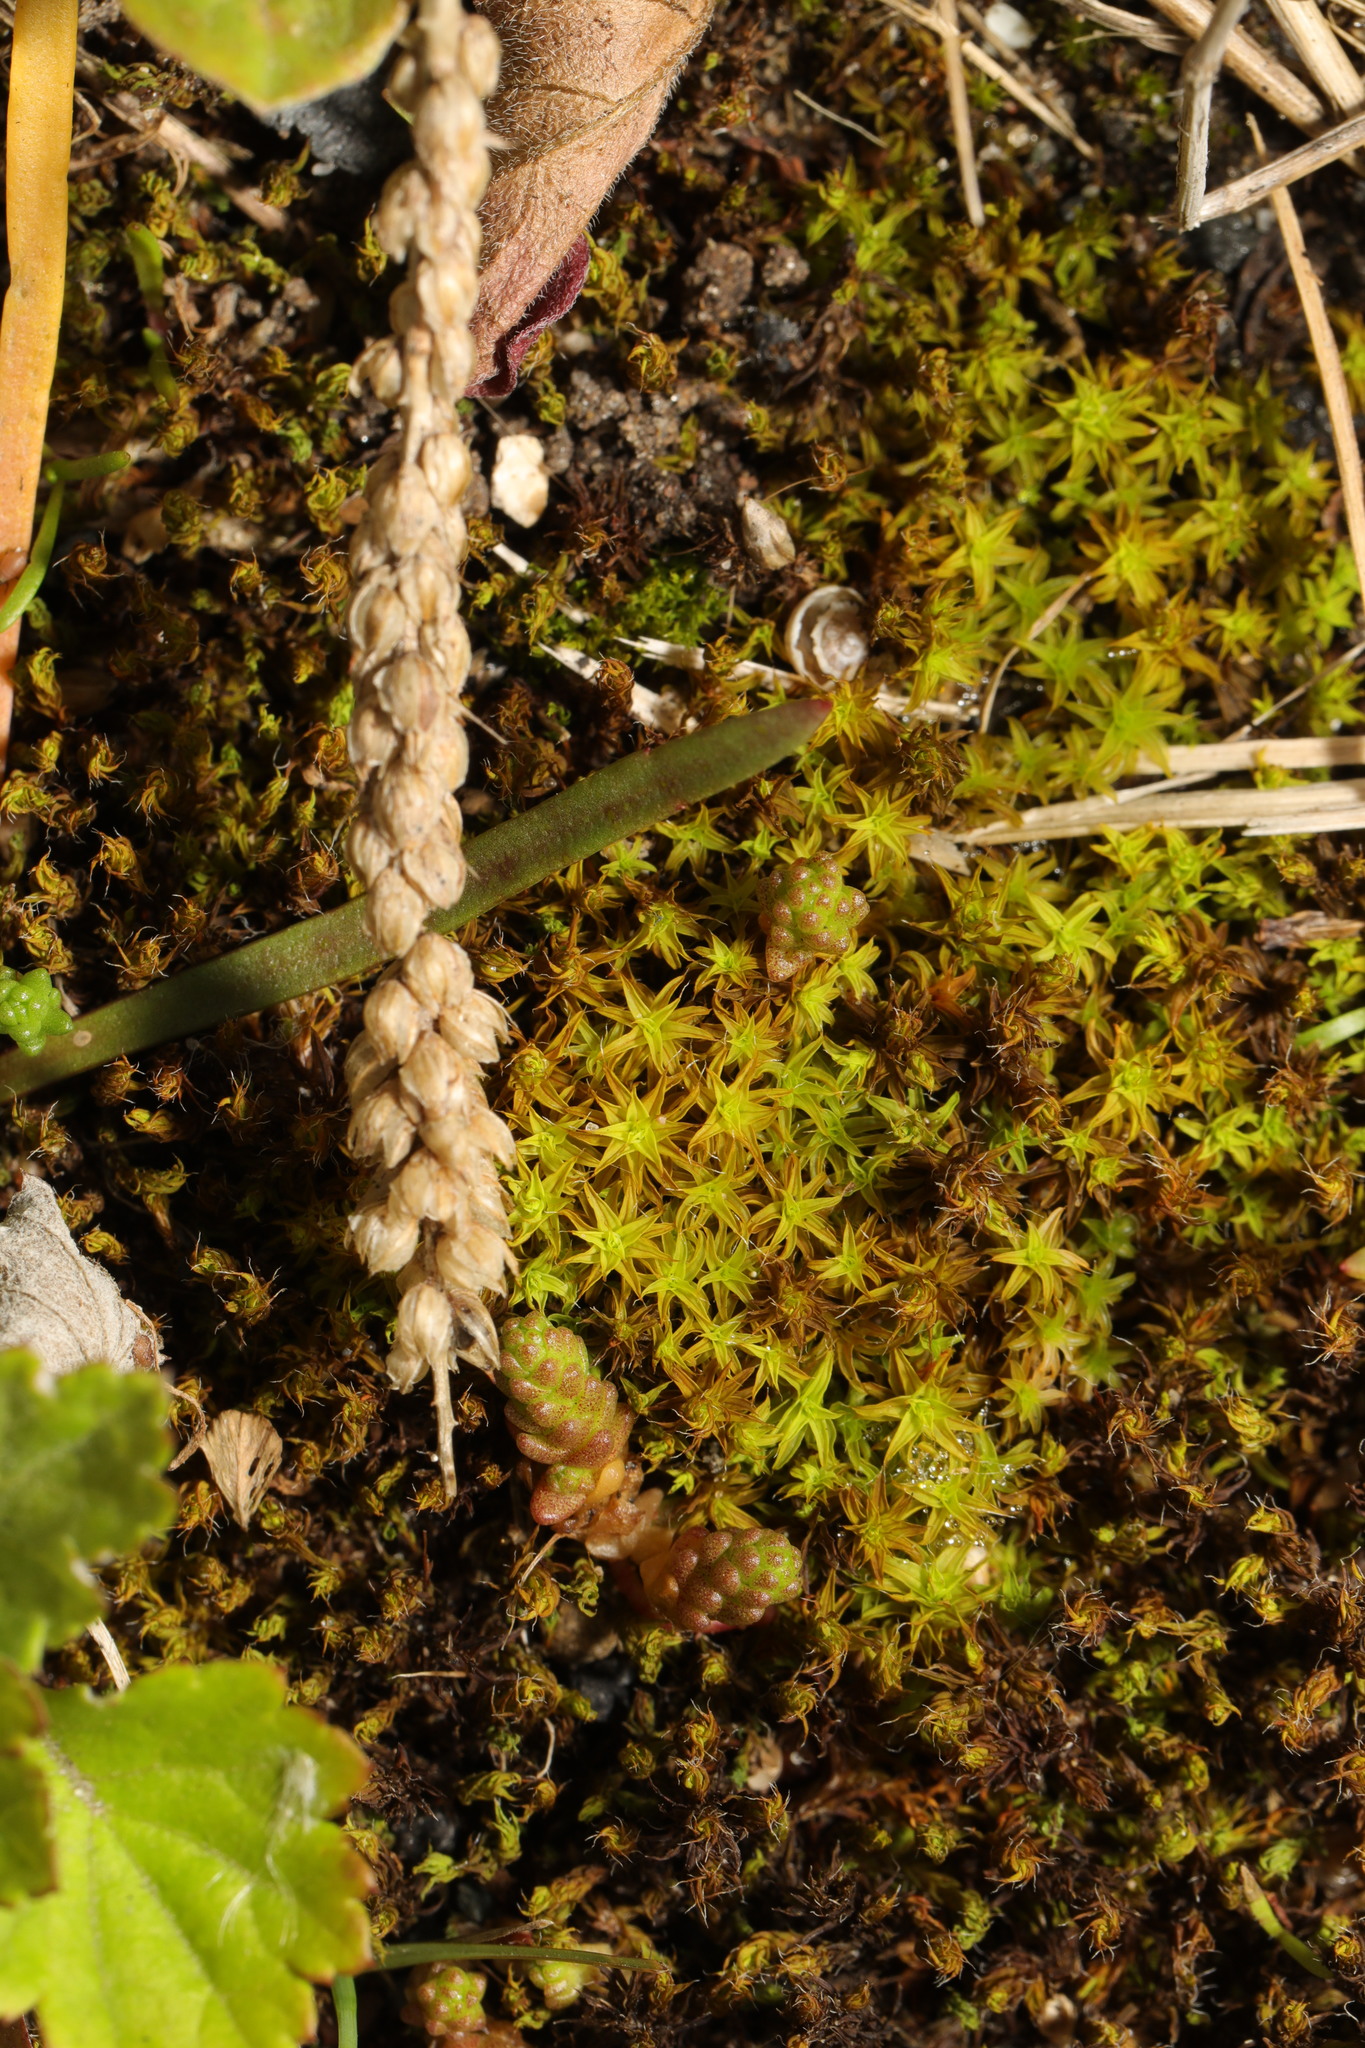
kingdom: Plantae
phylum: Bryophyta
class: Bryopsida
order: Pottiales
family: Pottiaceae
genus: Syntrichia
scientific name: Syntrichia ruralis
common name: Sidewalk screw moss
